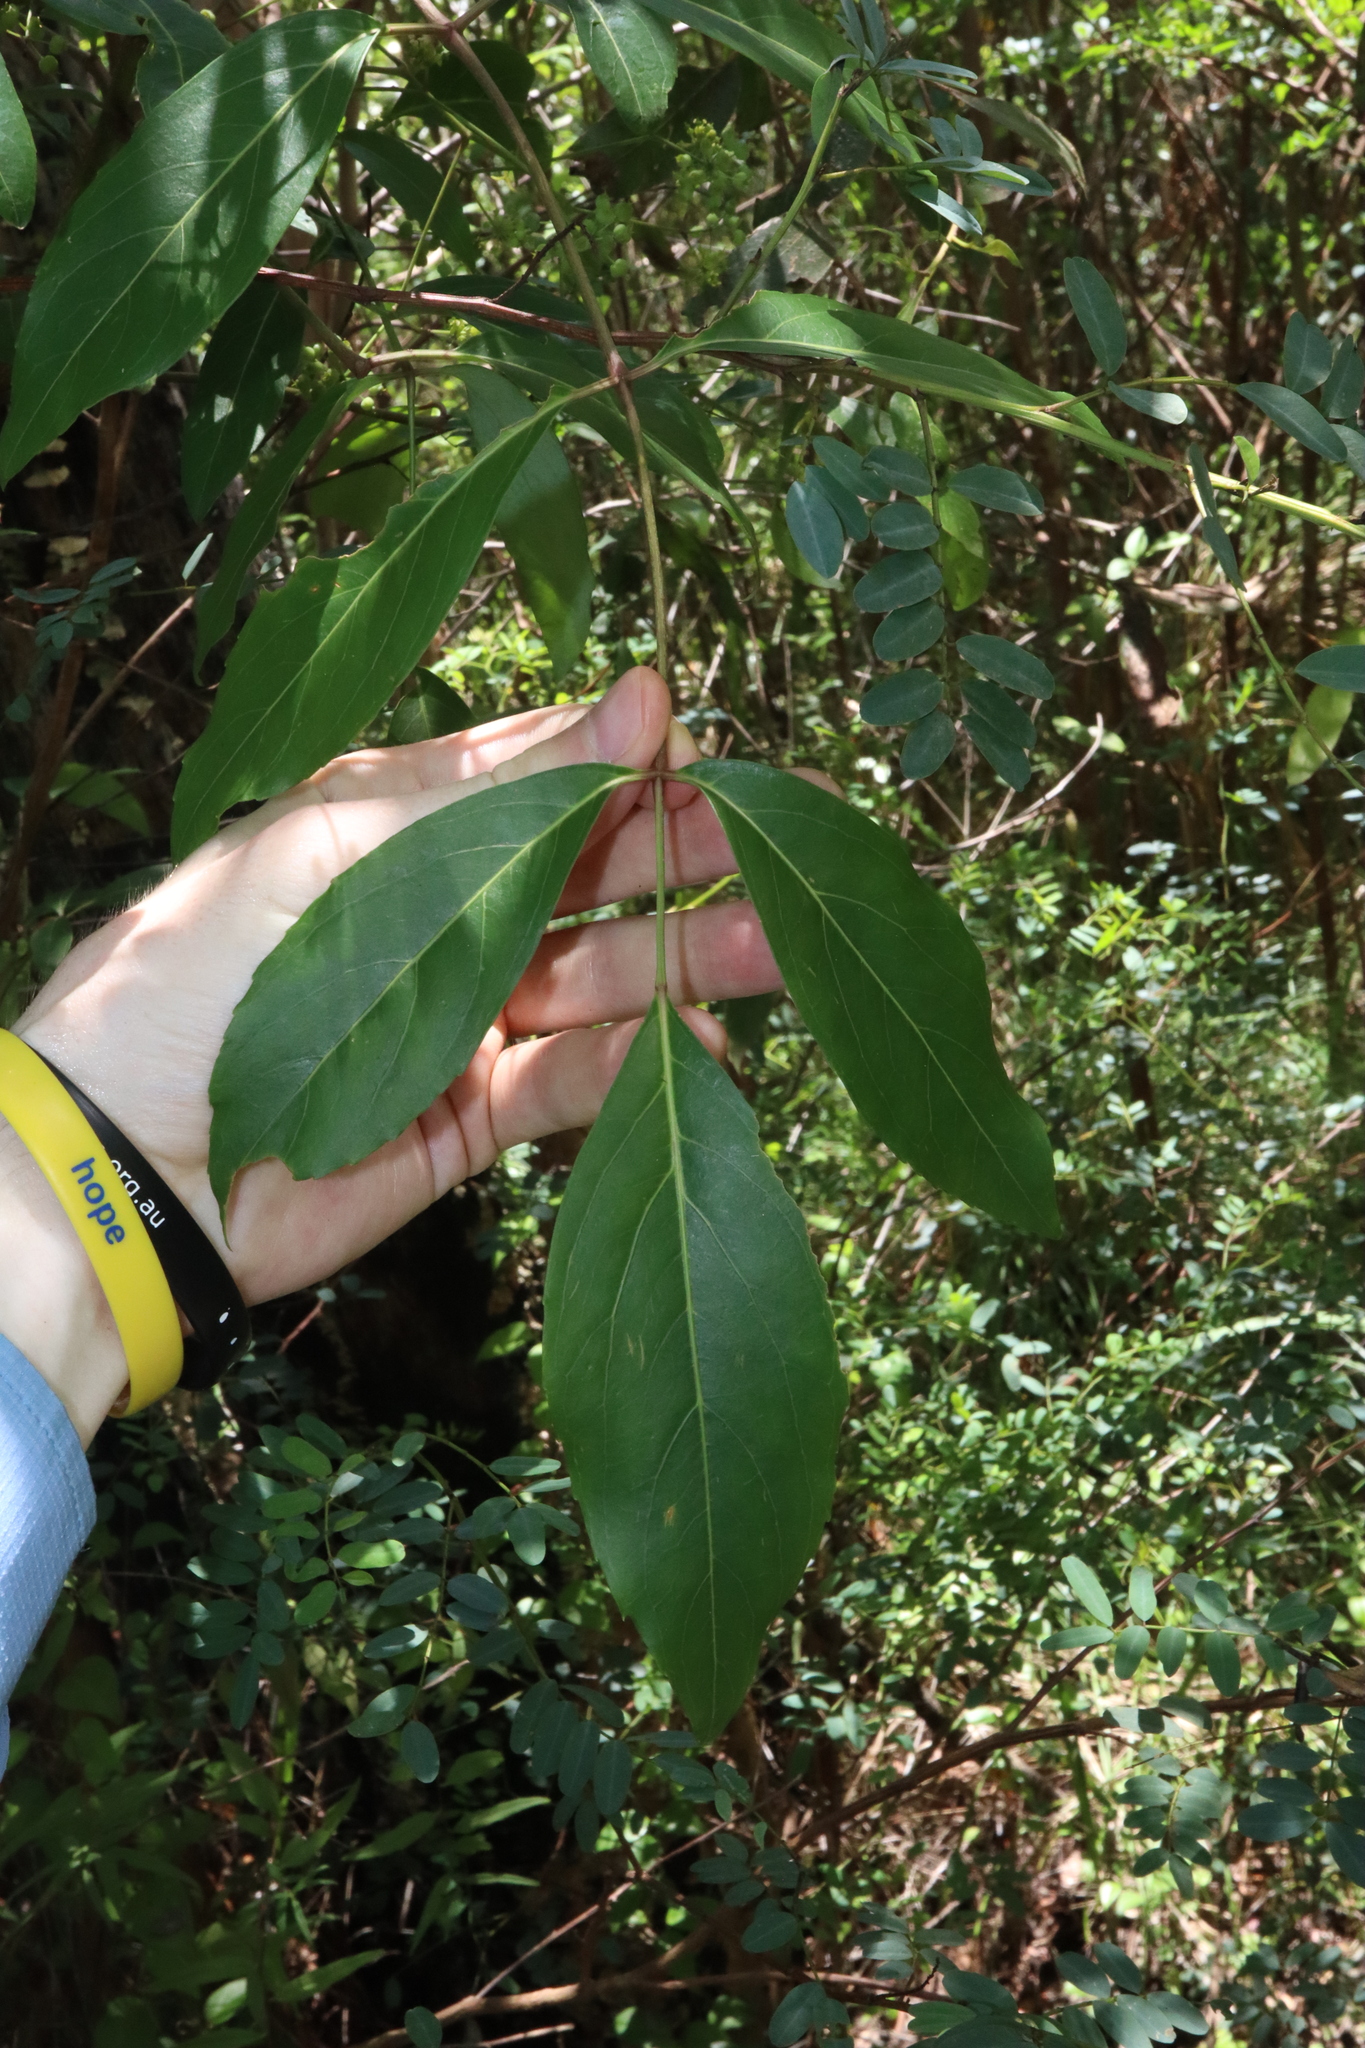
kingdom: Plantae
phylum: Tracheophyta
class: Magnoliopsida
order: Apiales
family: Araliaceae
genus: Polyscias
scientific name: Polyscias sambucifolia
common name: Elderberry-ash
